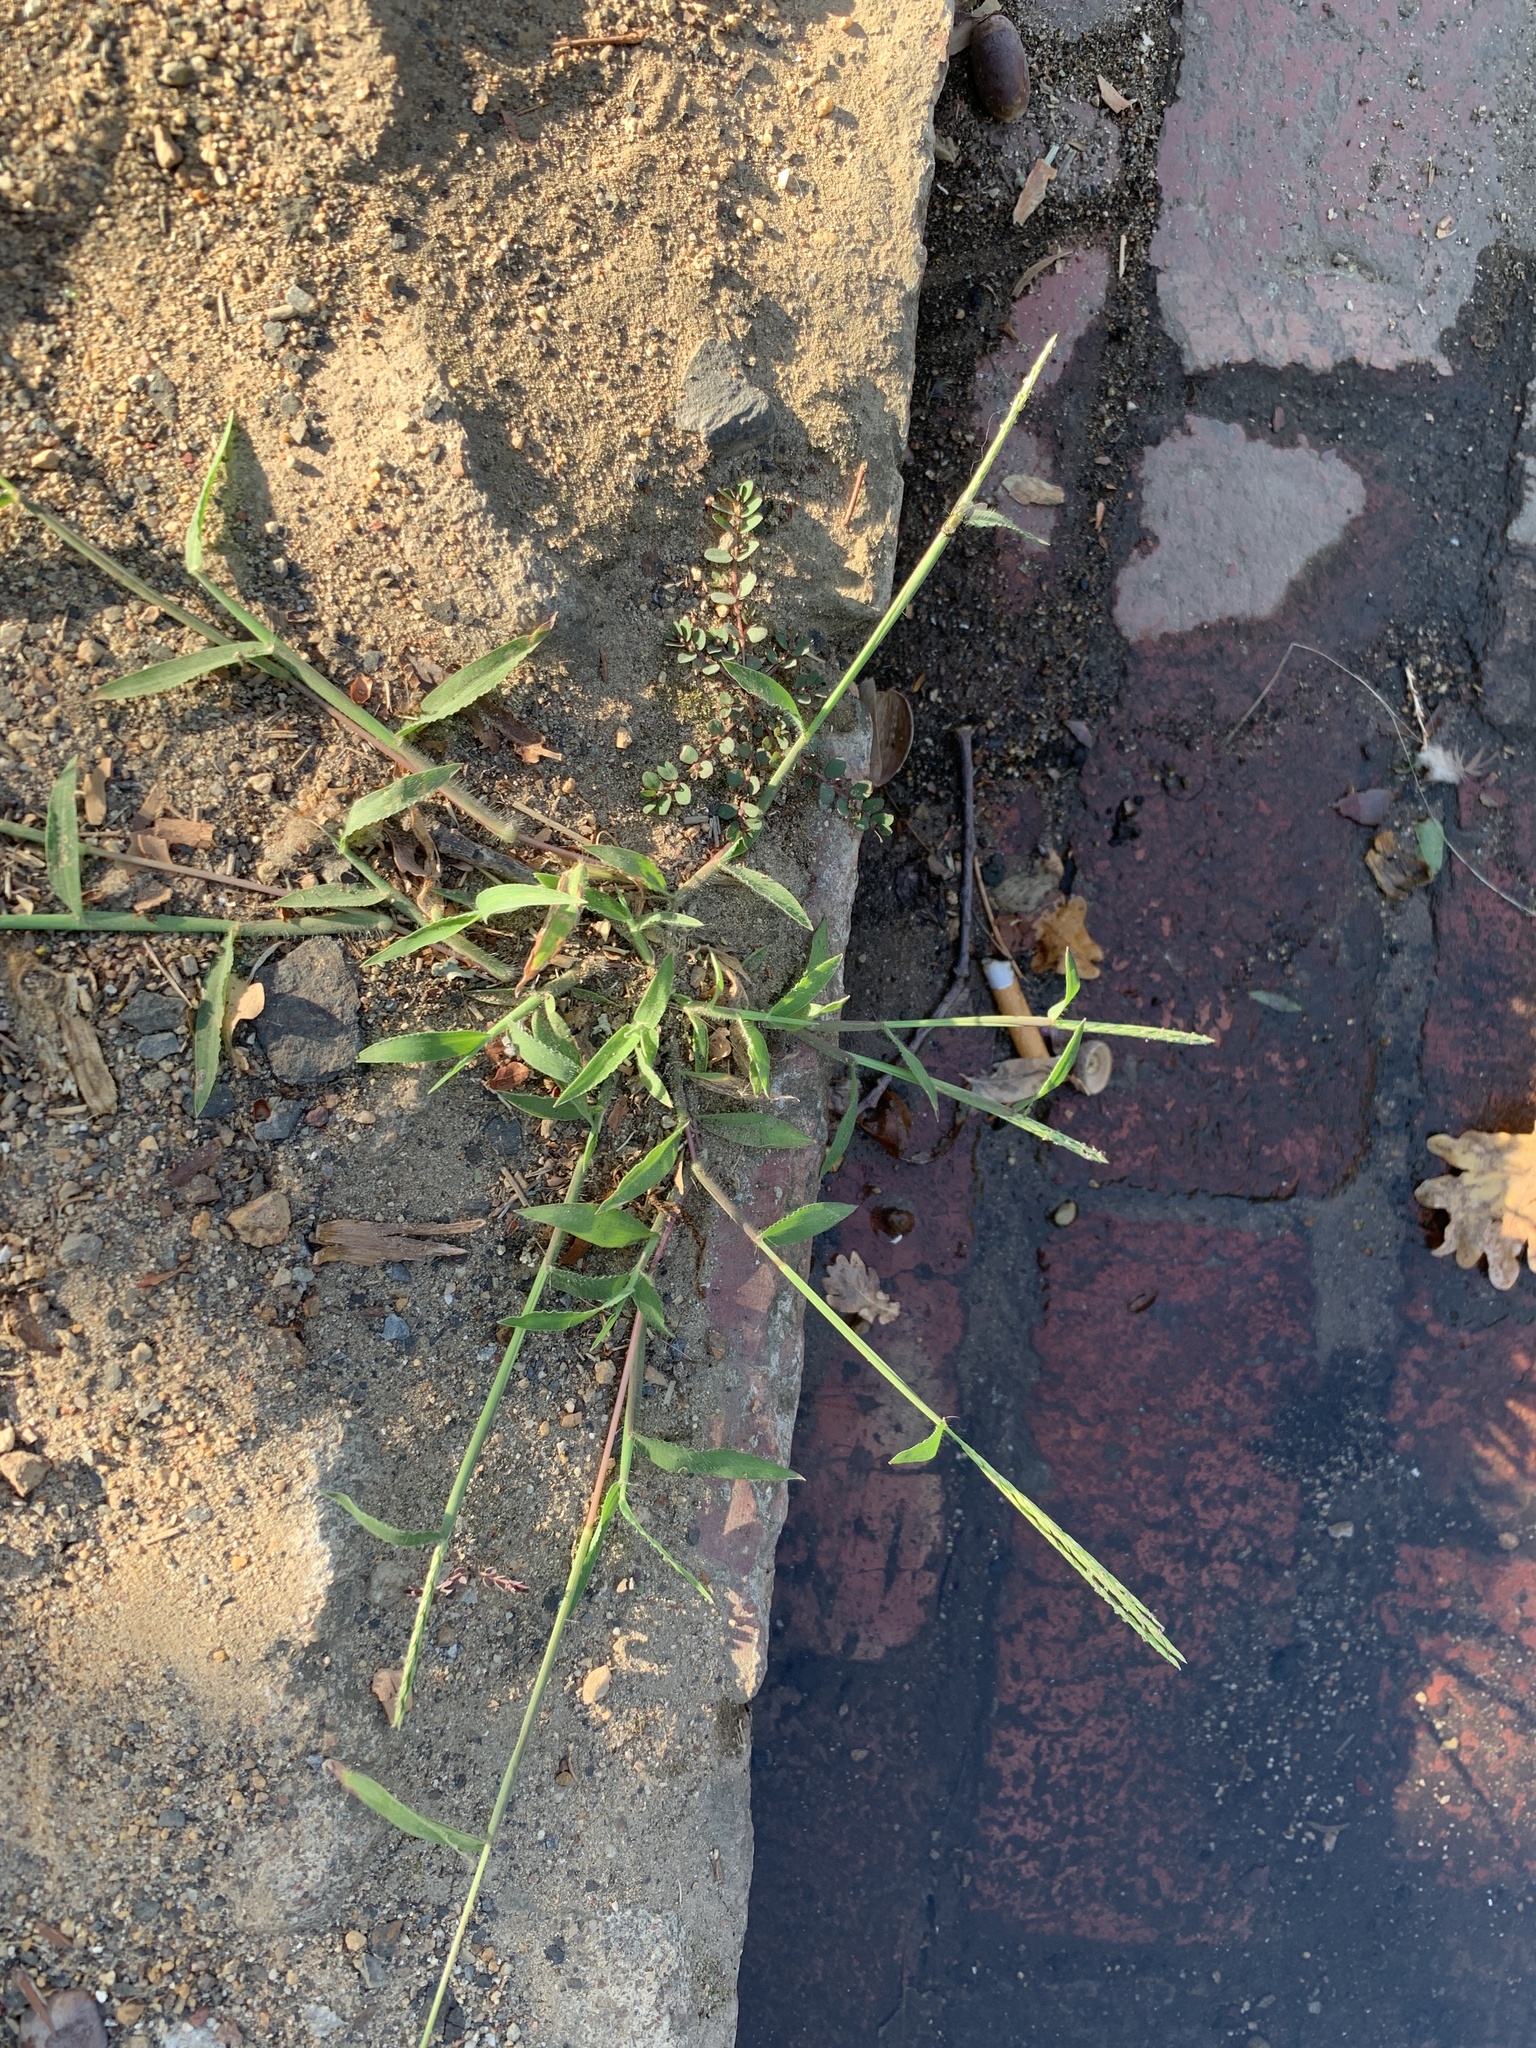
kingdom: Plantae
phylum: Tracheophyta
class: Liliopsida
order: Poales
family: Poaceae
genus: Digitaria
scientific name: Digitaria sanguinalis
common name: Hairy crabgrass
